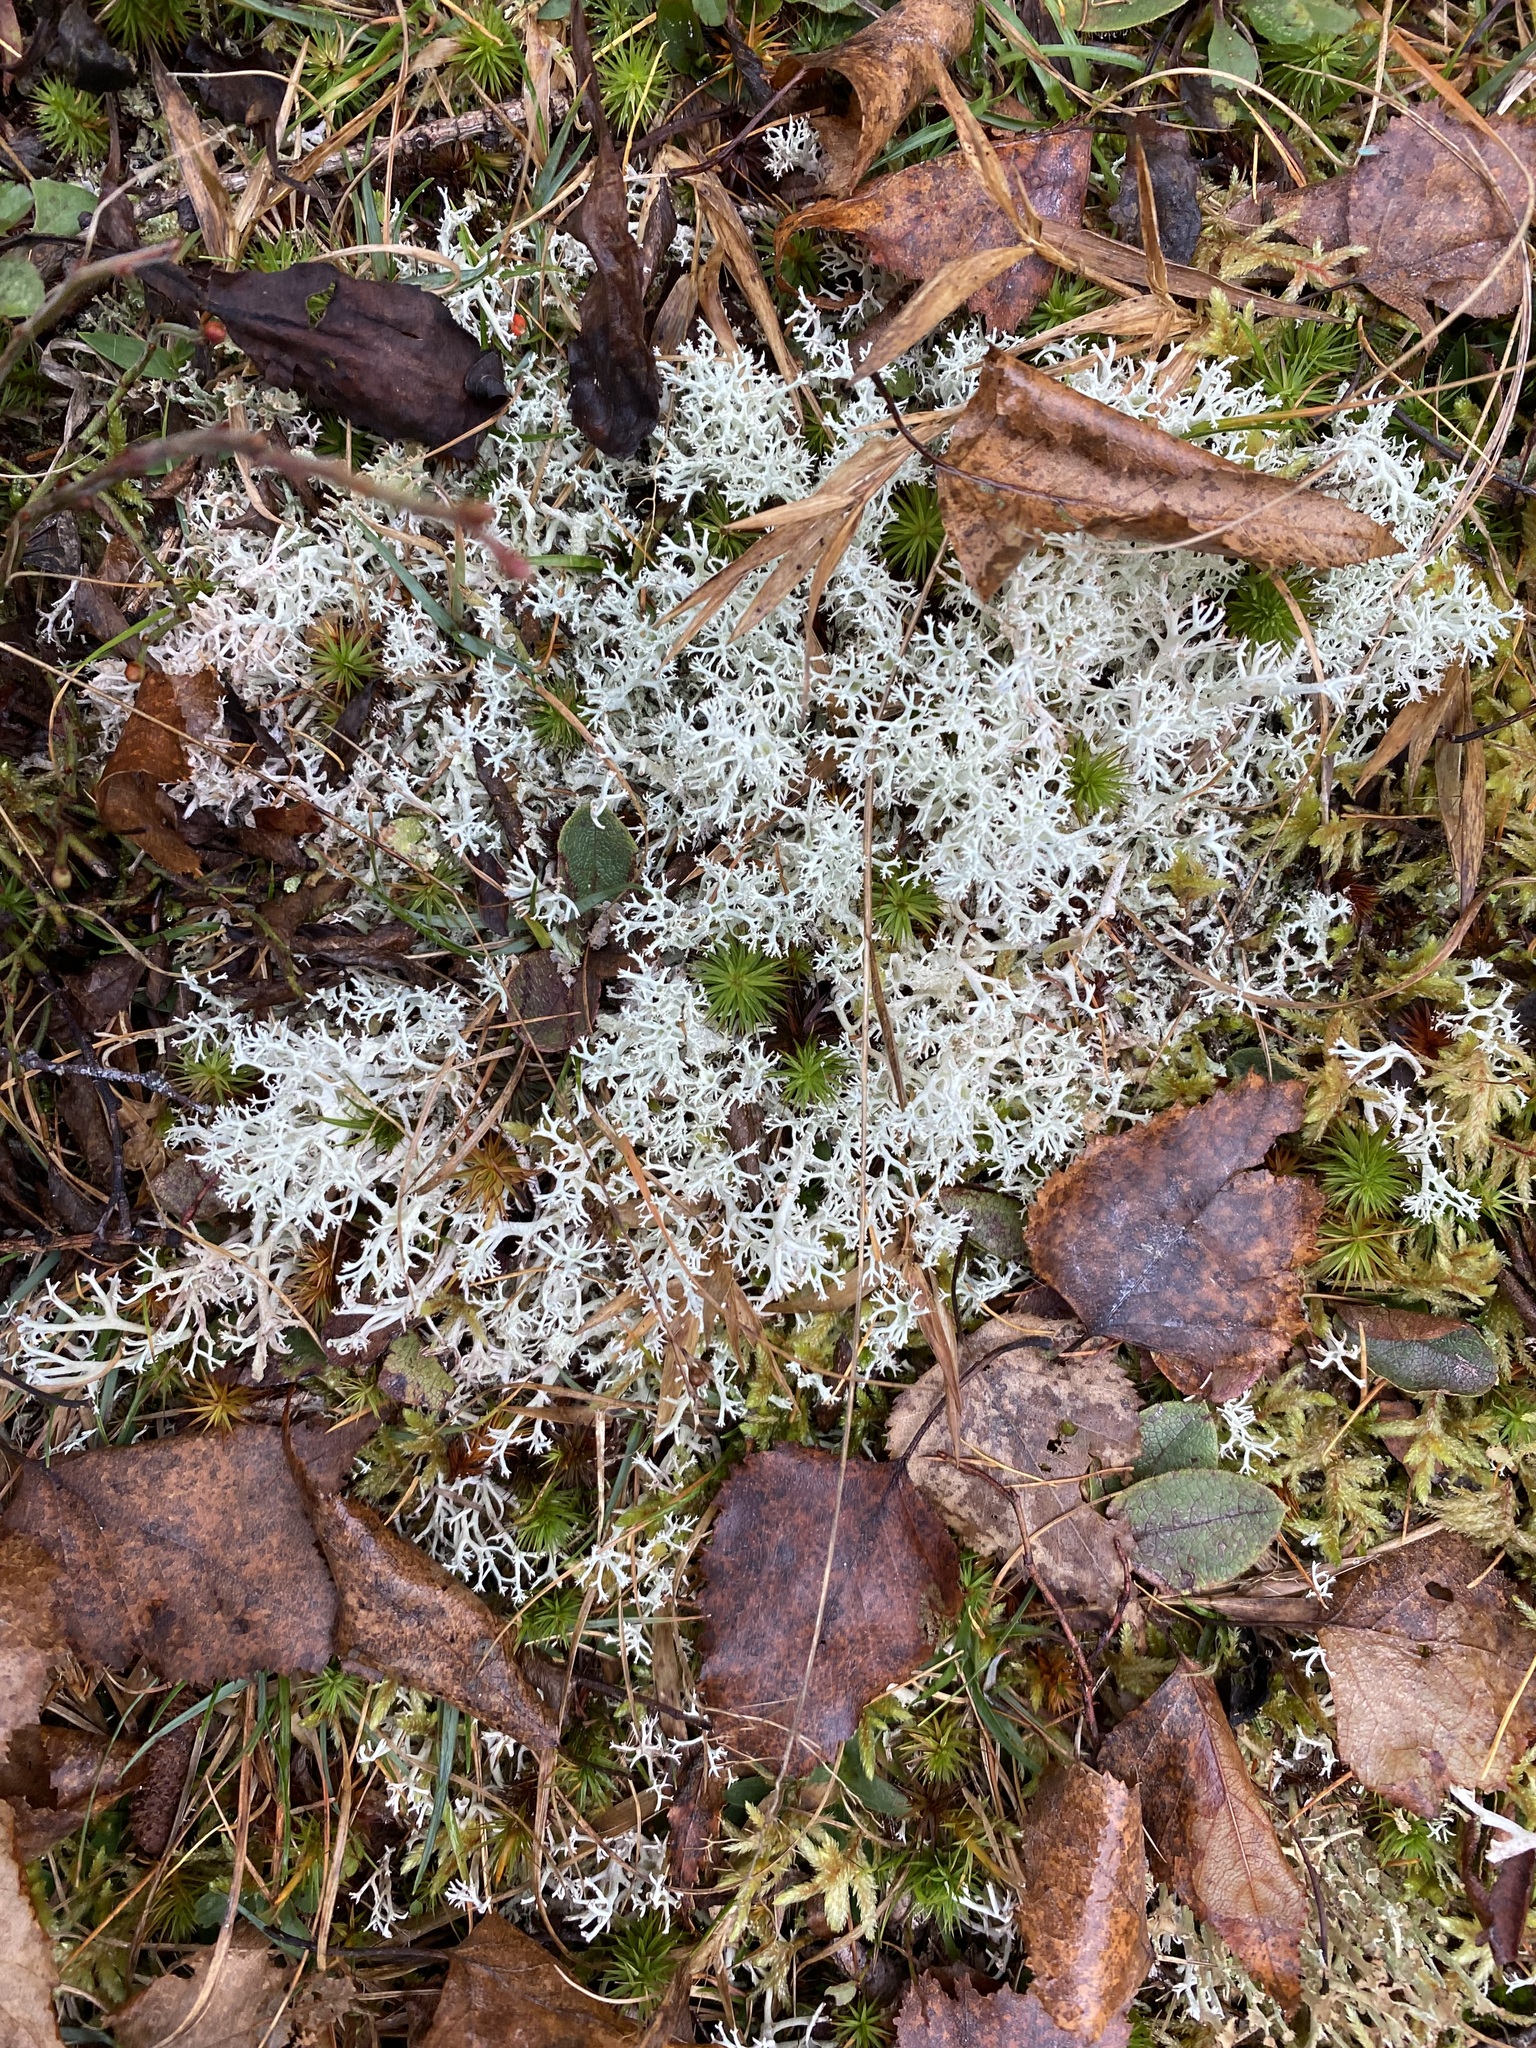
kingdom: Fungi
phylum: Ascomycota
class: Lecanoromycetes
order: Lecanorales
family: Cladoniaceae
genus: Cladonia
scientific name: Cladonia rangiferina
